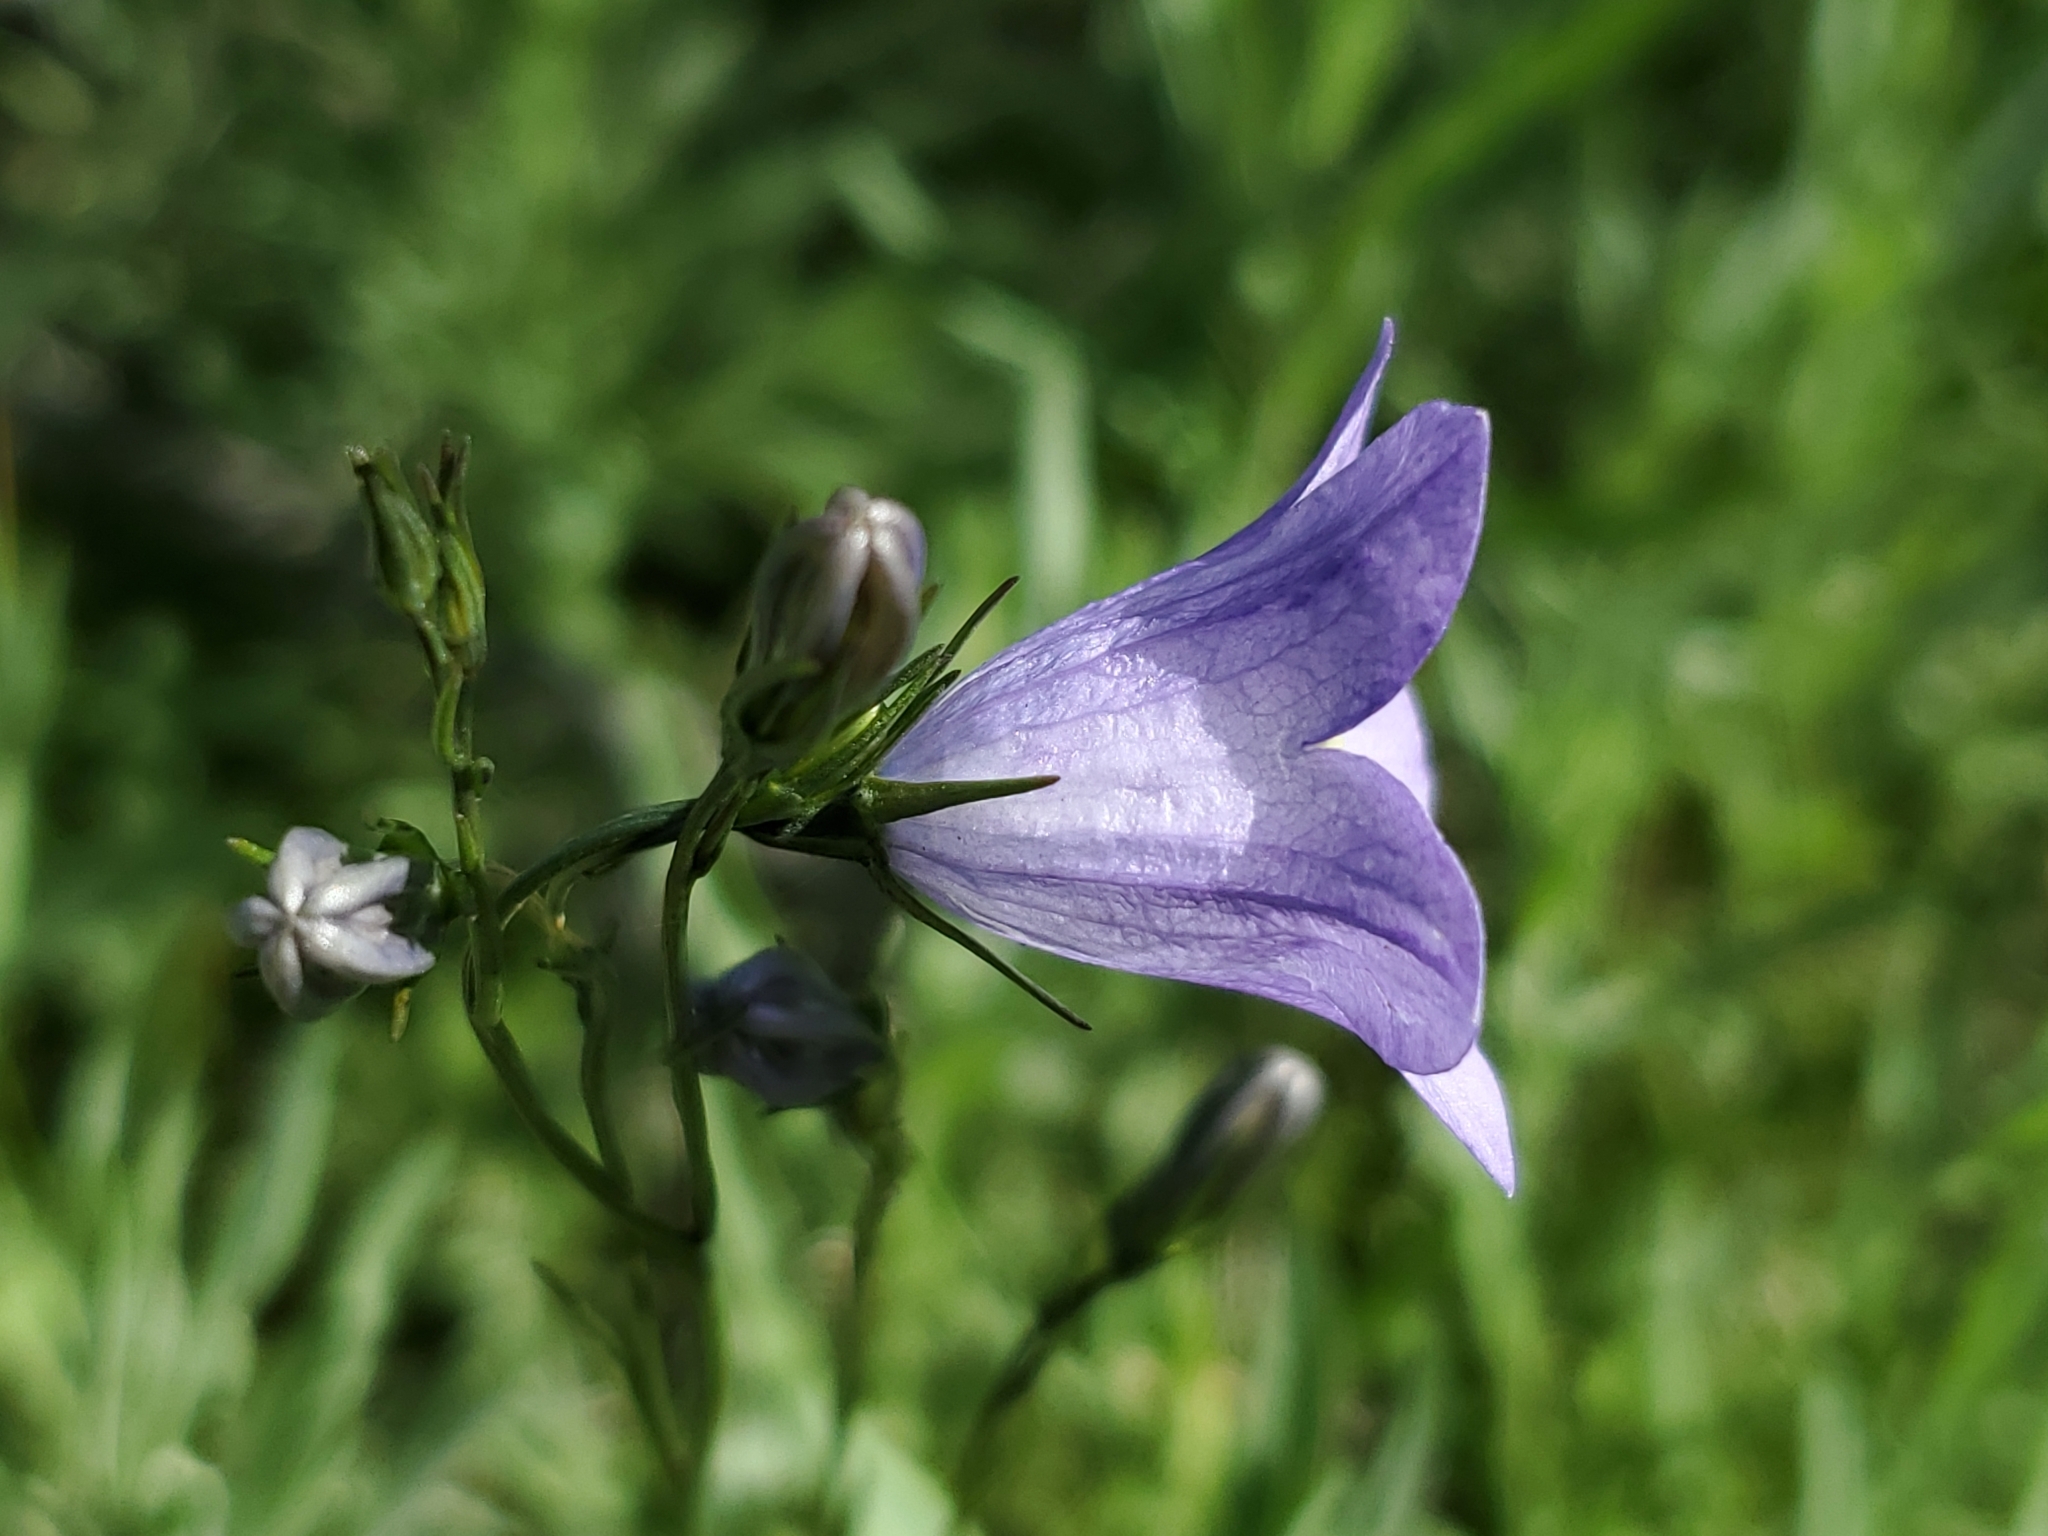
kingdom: Plantae
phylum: Tracheophyta
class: Magnoliopsida
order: Asterales
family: Campanulaceae
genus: Campanula
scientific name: Campanula petiolata
